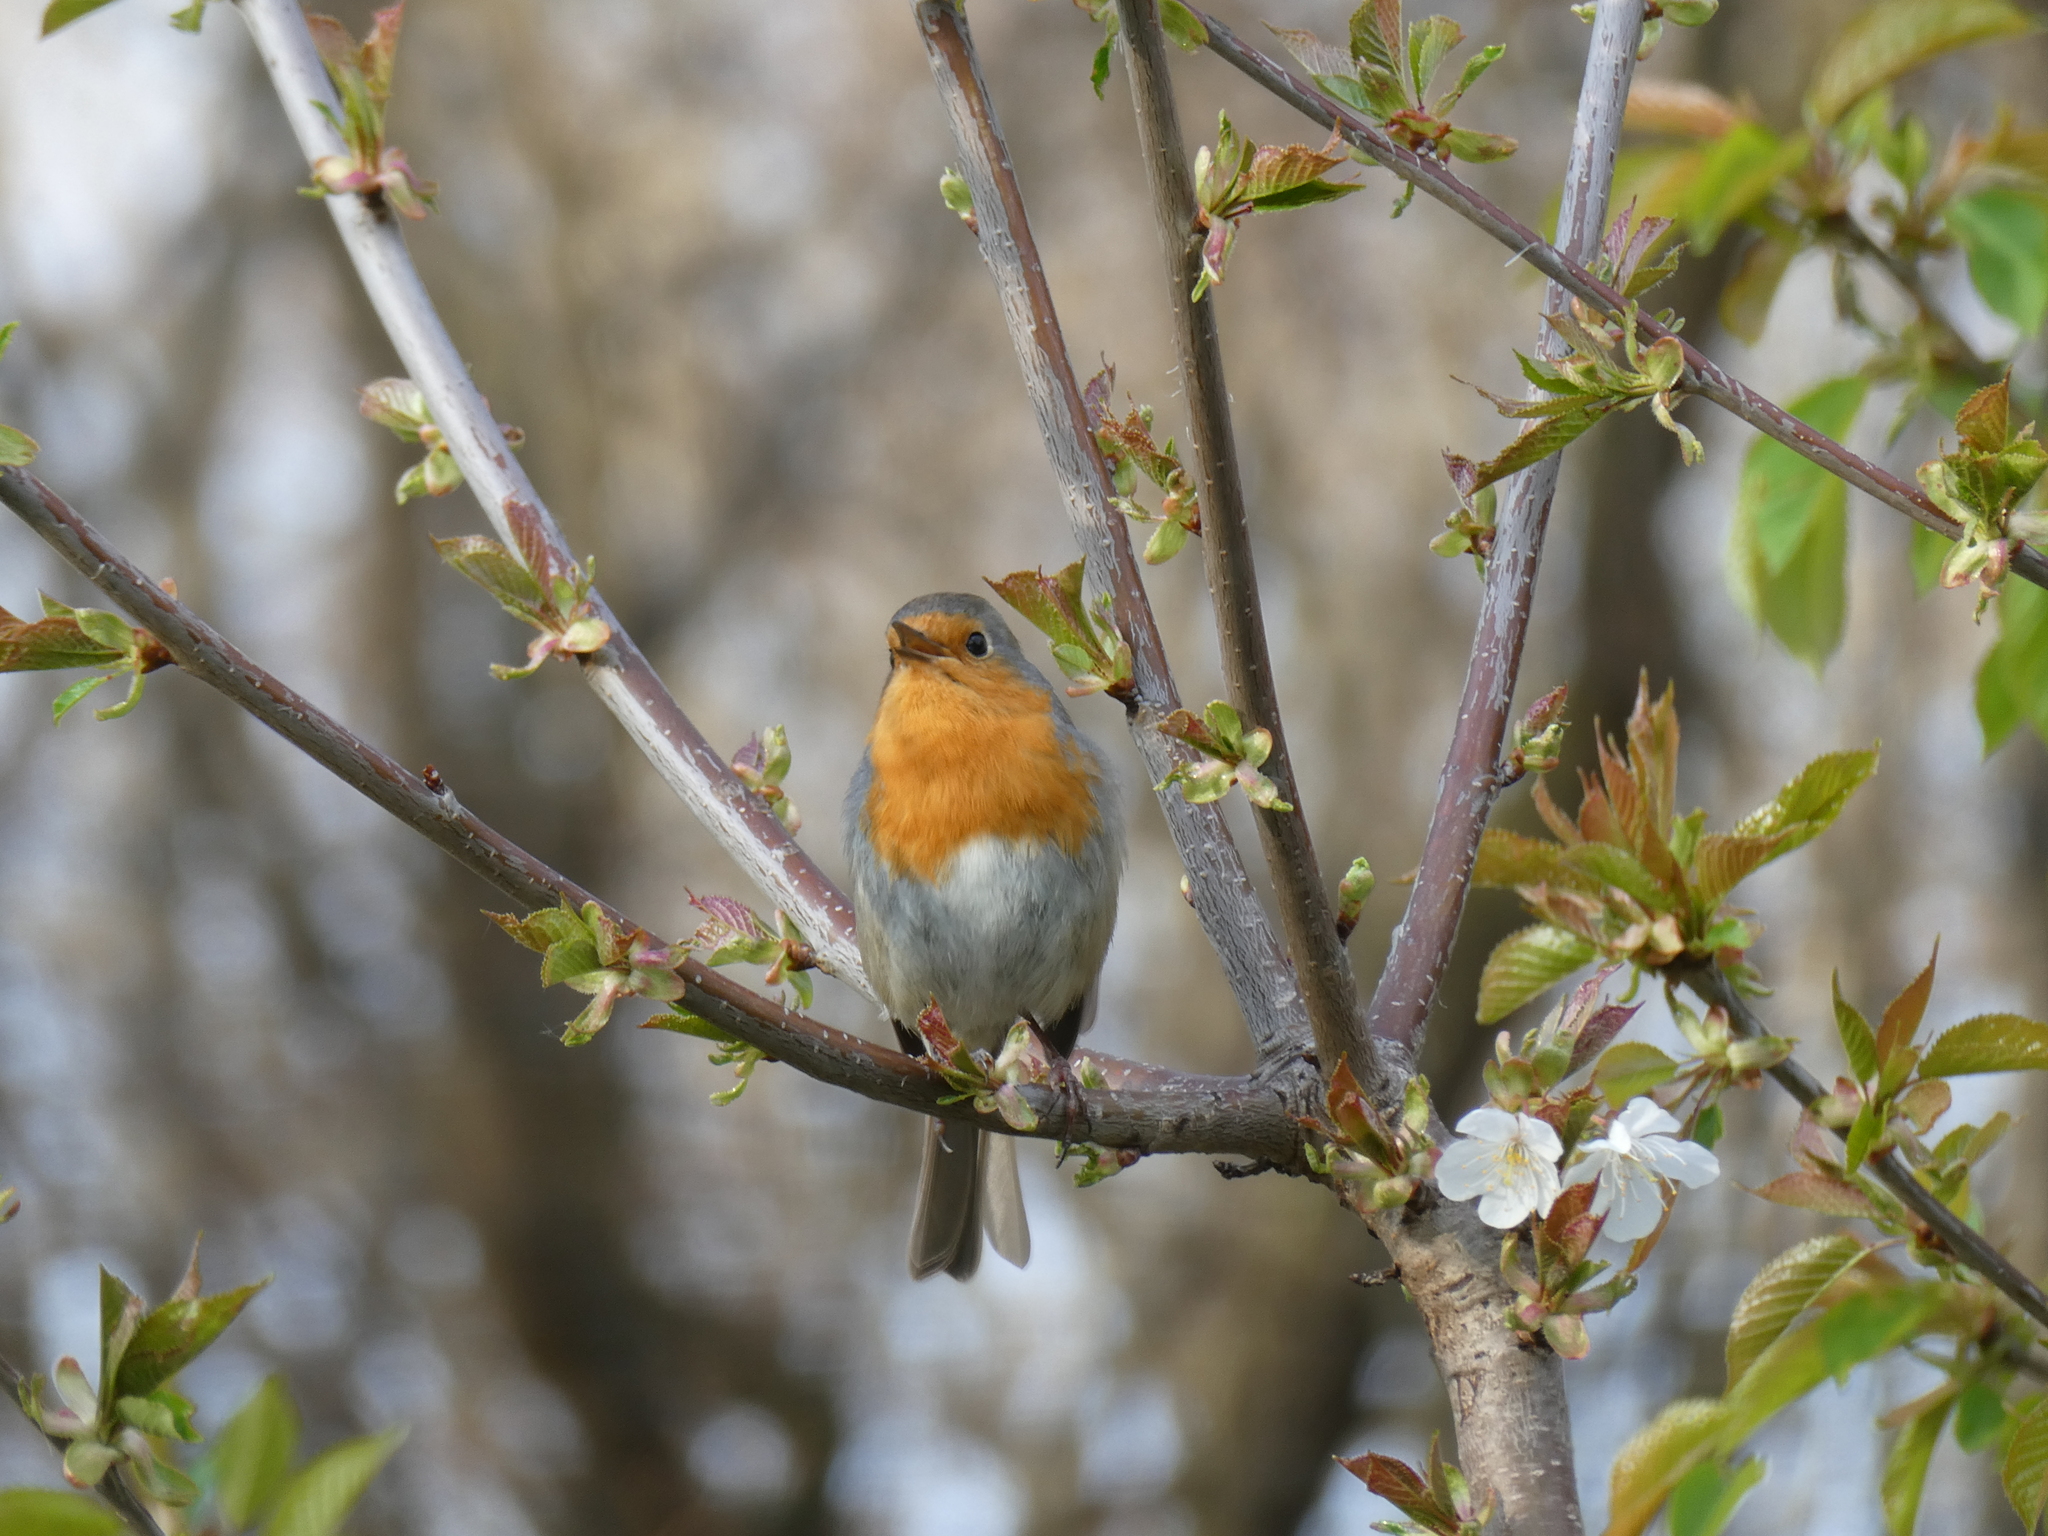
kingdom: Animalia
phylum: Chordata
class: Aves
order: Passeriformes
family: Muscicapidae
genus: Erithacus
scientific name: Erithacus rubecula
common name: European robin
